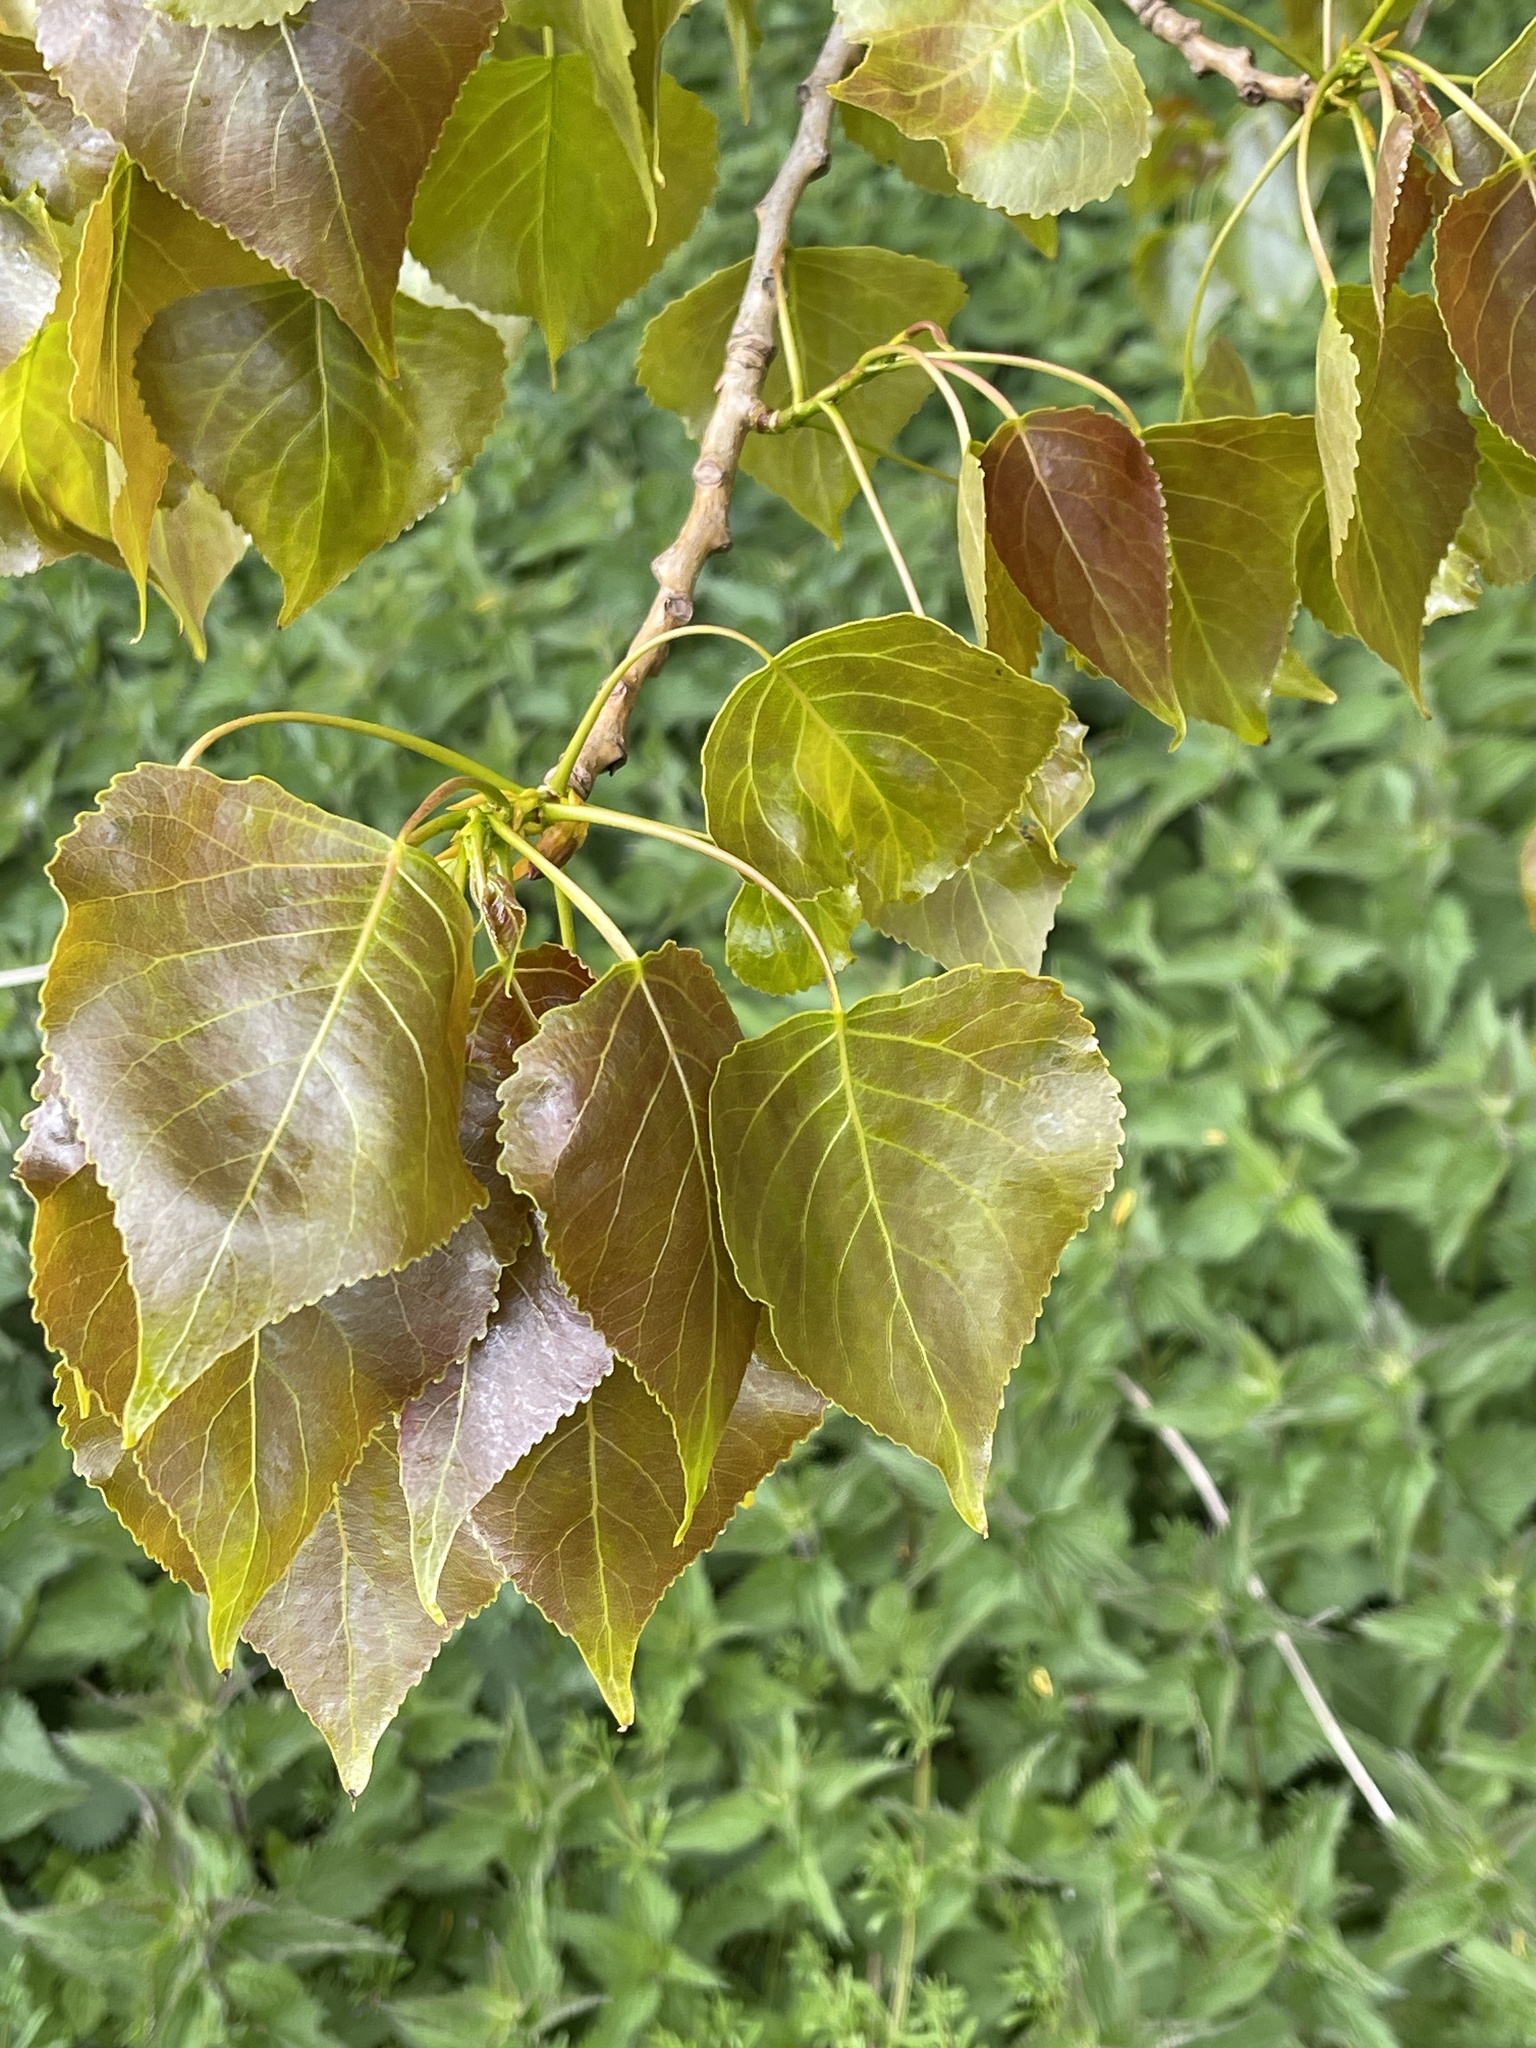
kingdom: Plantae
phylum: Tracheophyta
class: Magnoliopsida
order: Malpighiales
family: Salicaceae
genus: Populus
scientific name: Populus canadensis
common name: Carolina poplar
